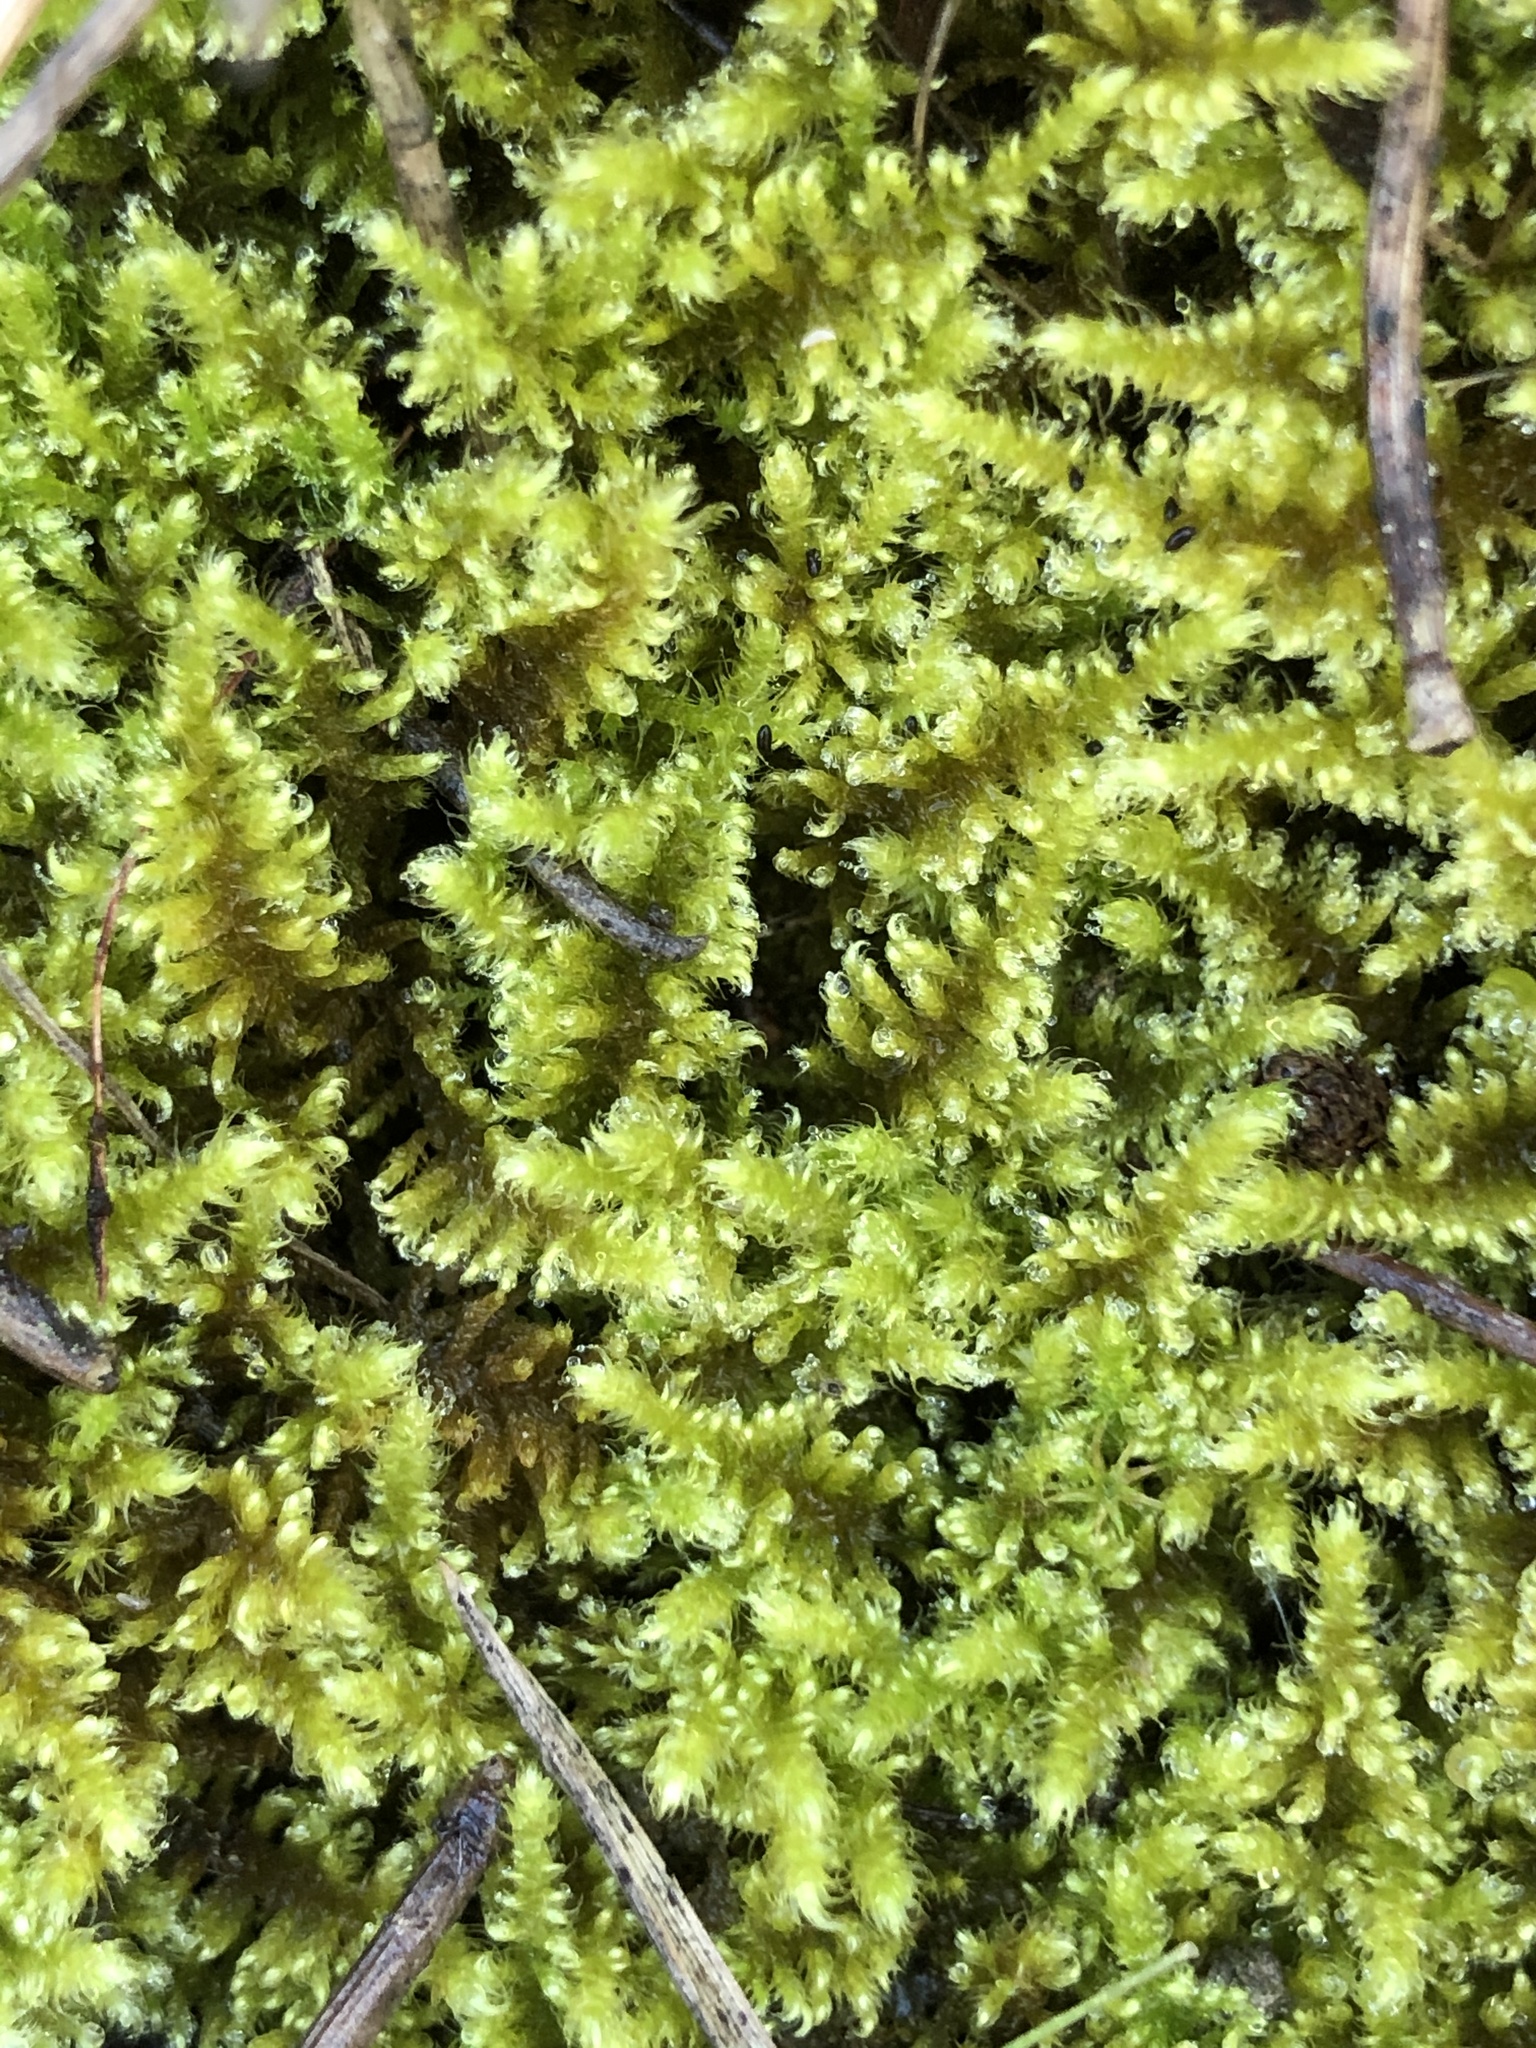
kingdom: Plantae
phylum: Bryophyta
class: Bryopsida
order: Hypnales
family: Myuriaceae
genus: Ctenidium
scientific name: Ctenidium molluscum
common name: Chalk comb-moss
